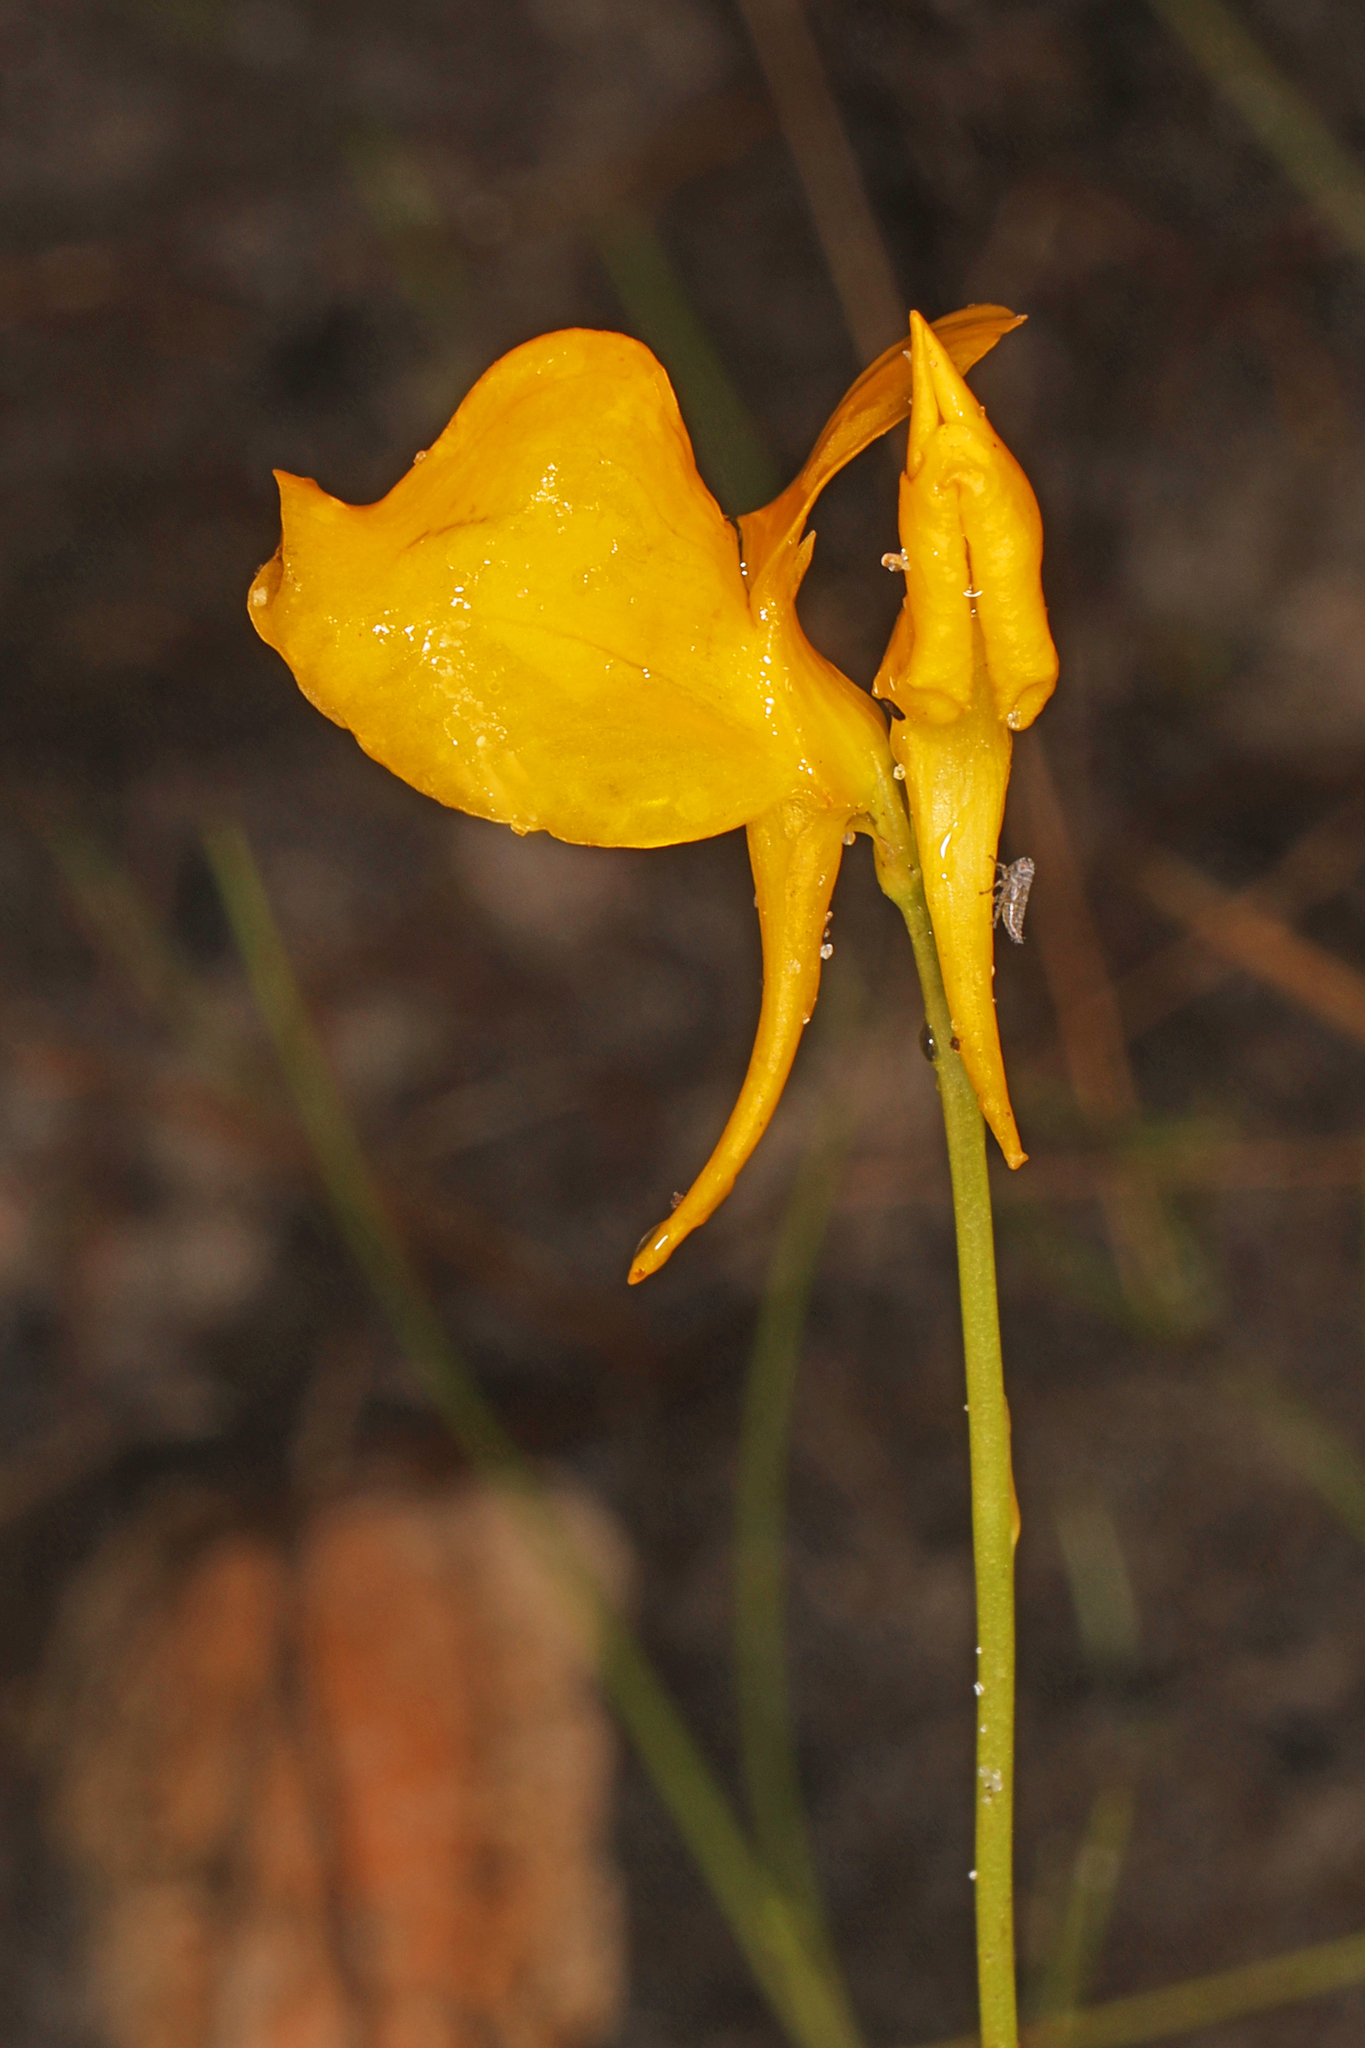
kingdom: Plantae
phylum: Tracheophyta
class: Magnoliopsida
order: Lamiales
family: Lentibulariaceae
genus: Utricularia
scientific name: Utricularia cornuta
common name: Horned bladderwort
